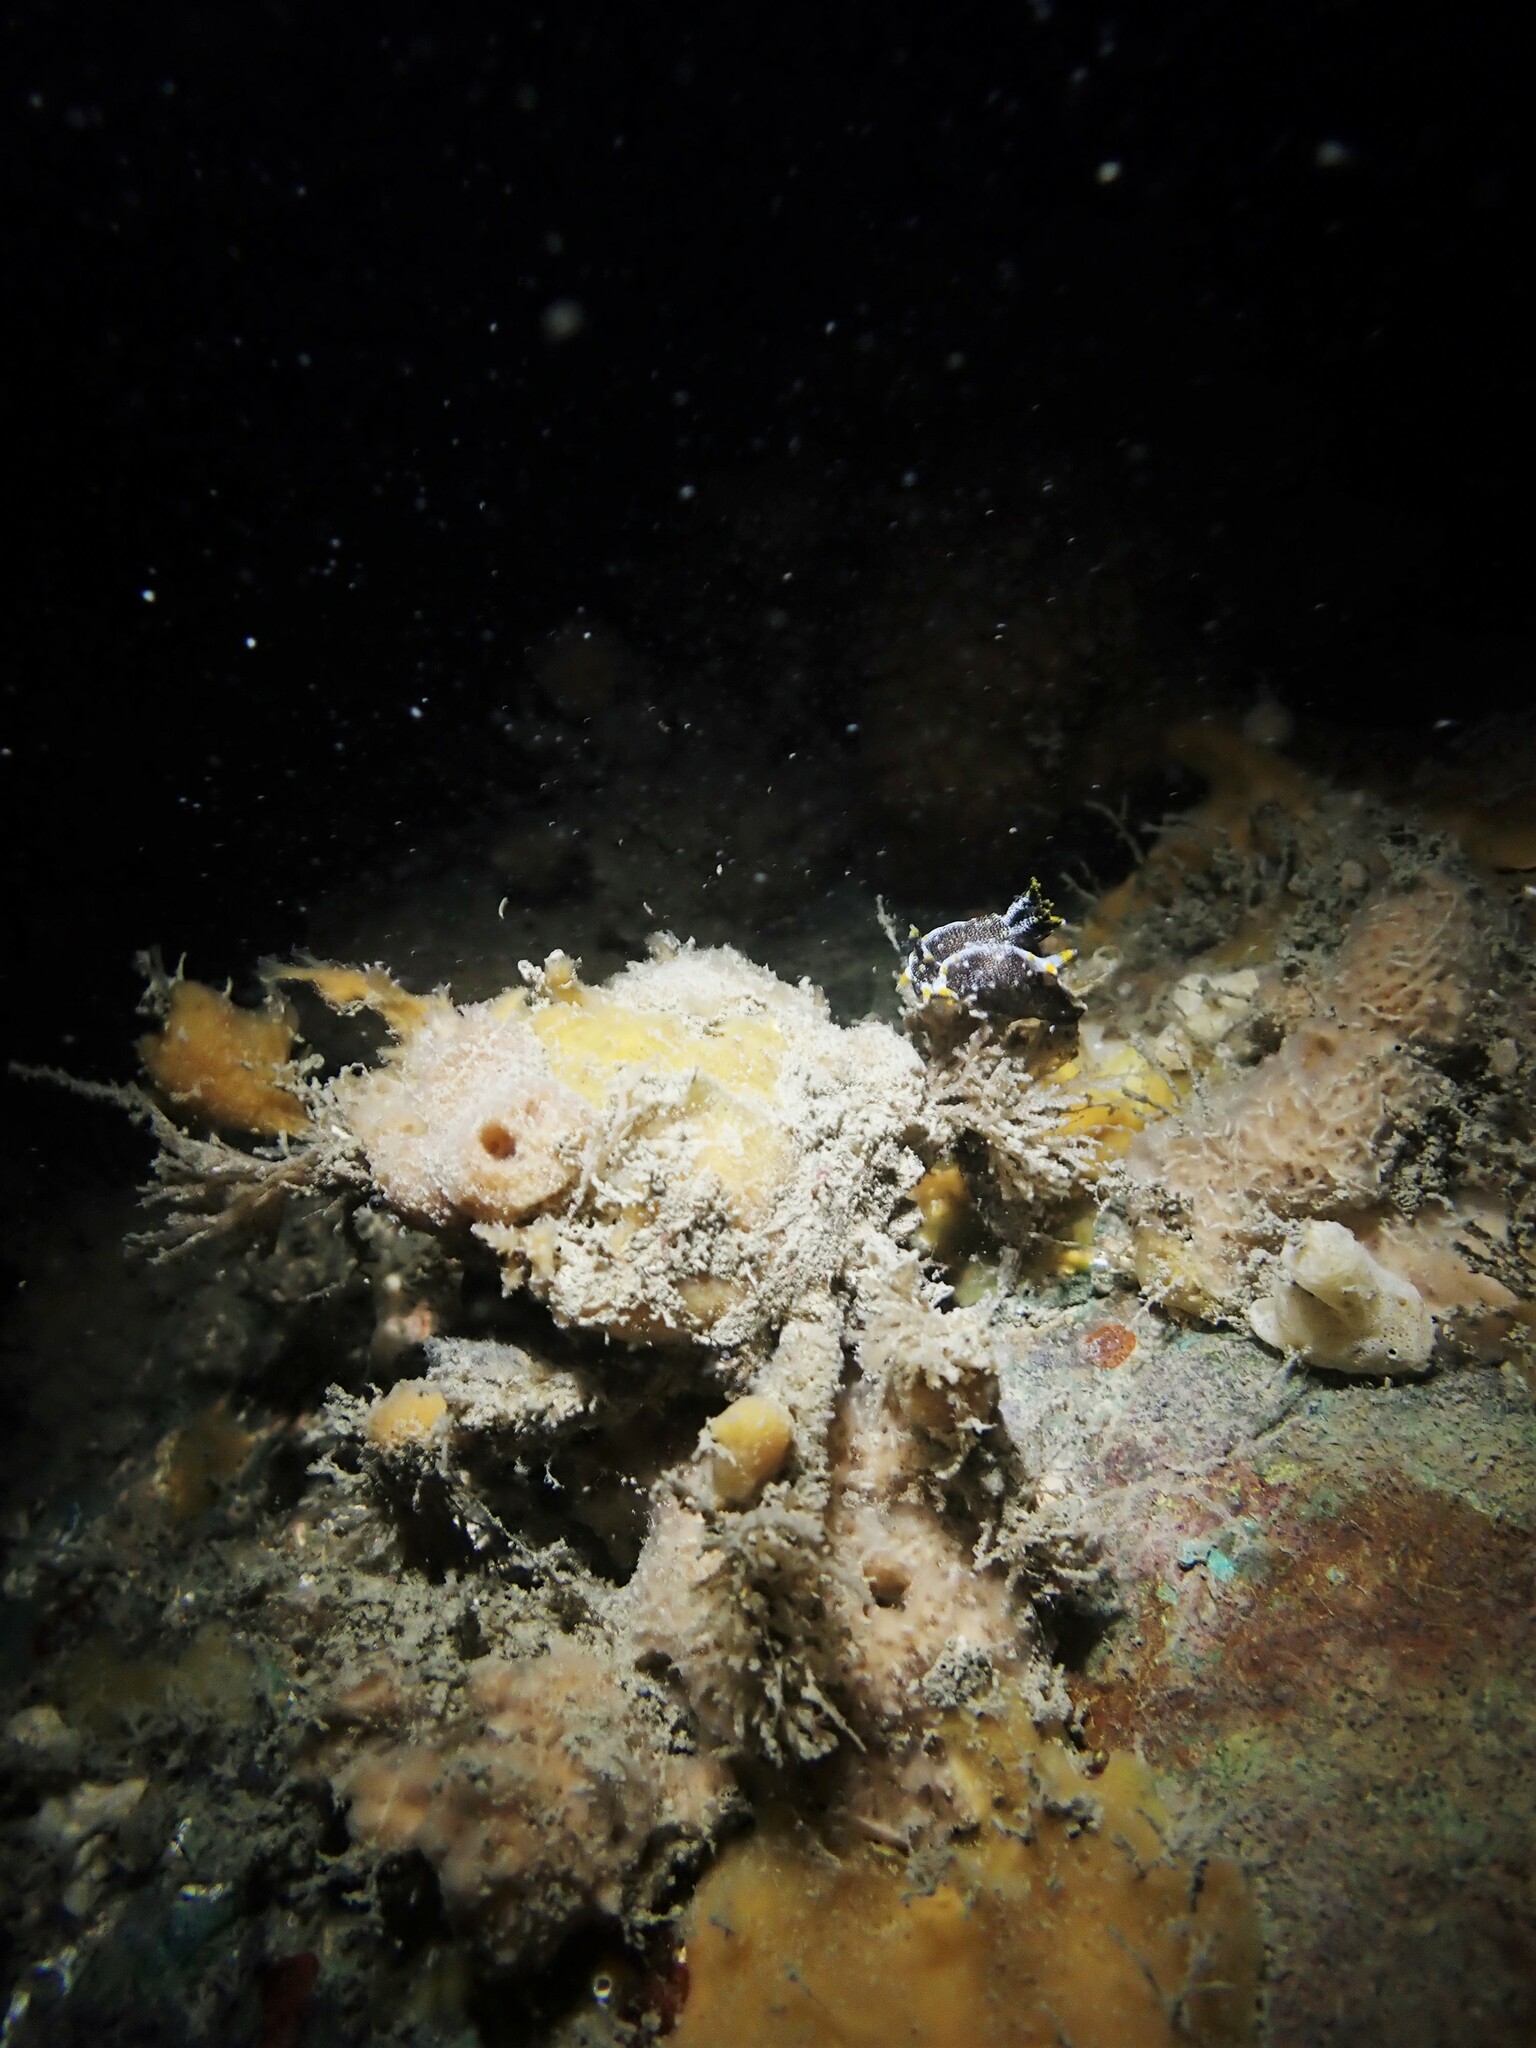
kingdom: Animalia
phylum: Mollusca
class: Gastropoda
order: Nudibranchia
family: Polyceridae
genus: Polycera
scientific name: Polycera hedgpethi
